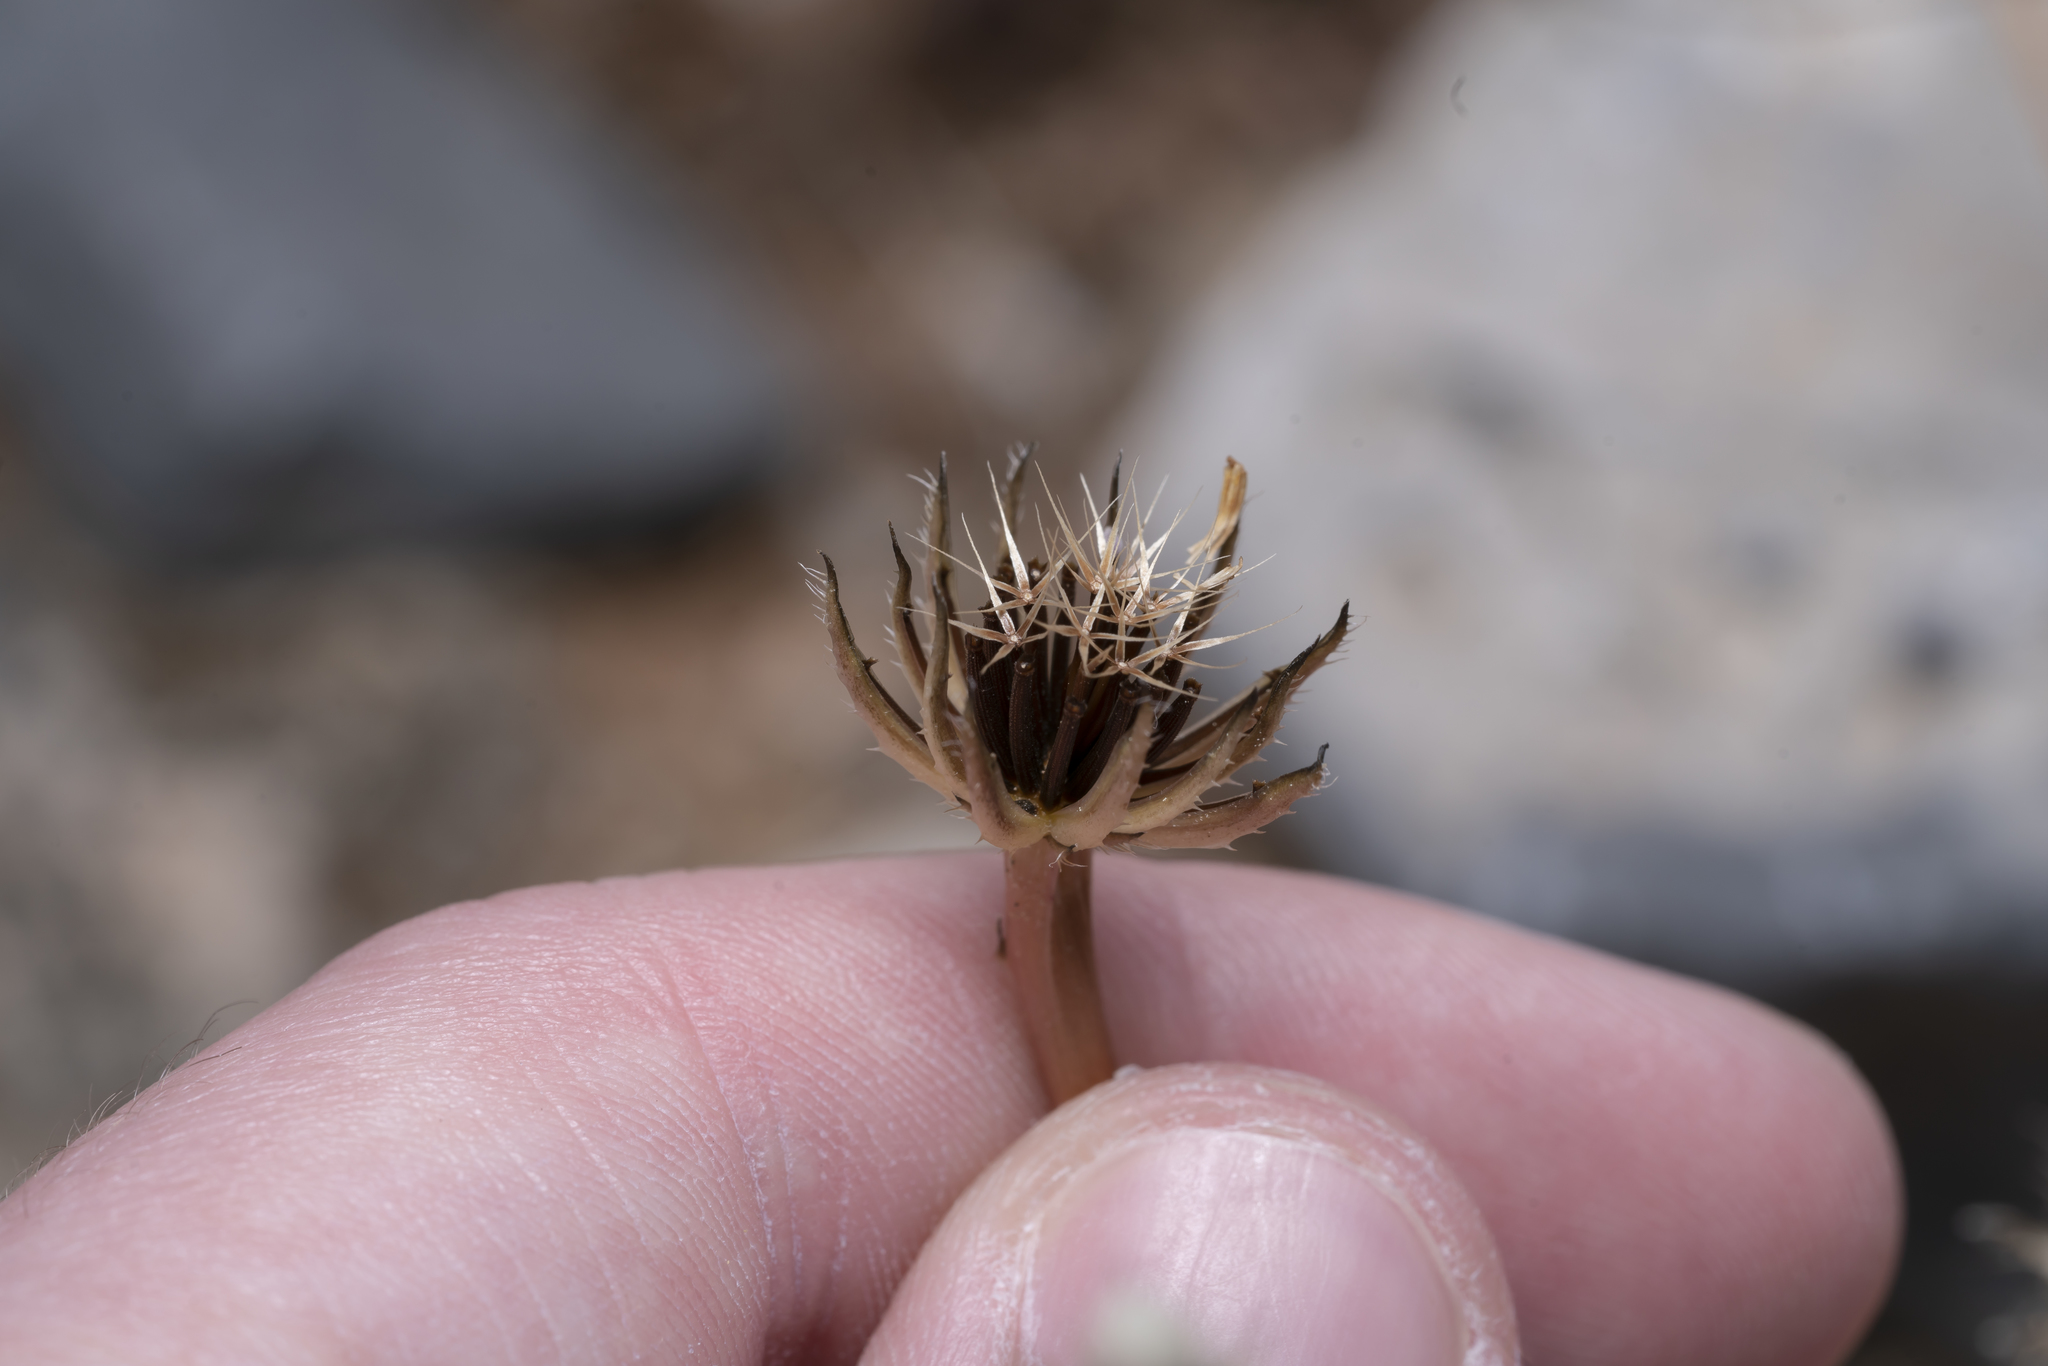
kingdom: Plantae
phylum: Tracheophyta
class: Magnoliopsida
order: Asterales
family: Asteraceae
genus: Hedypnois
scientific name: Hedypnois rhagadioloides
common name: Cretan weed
